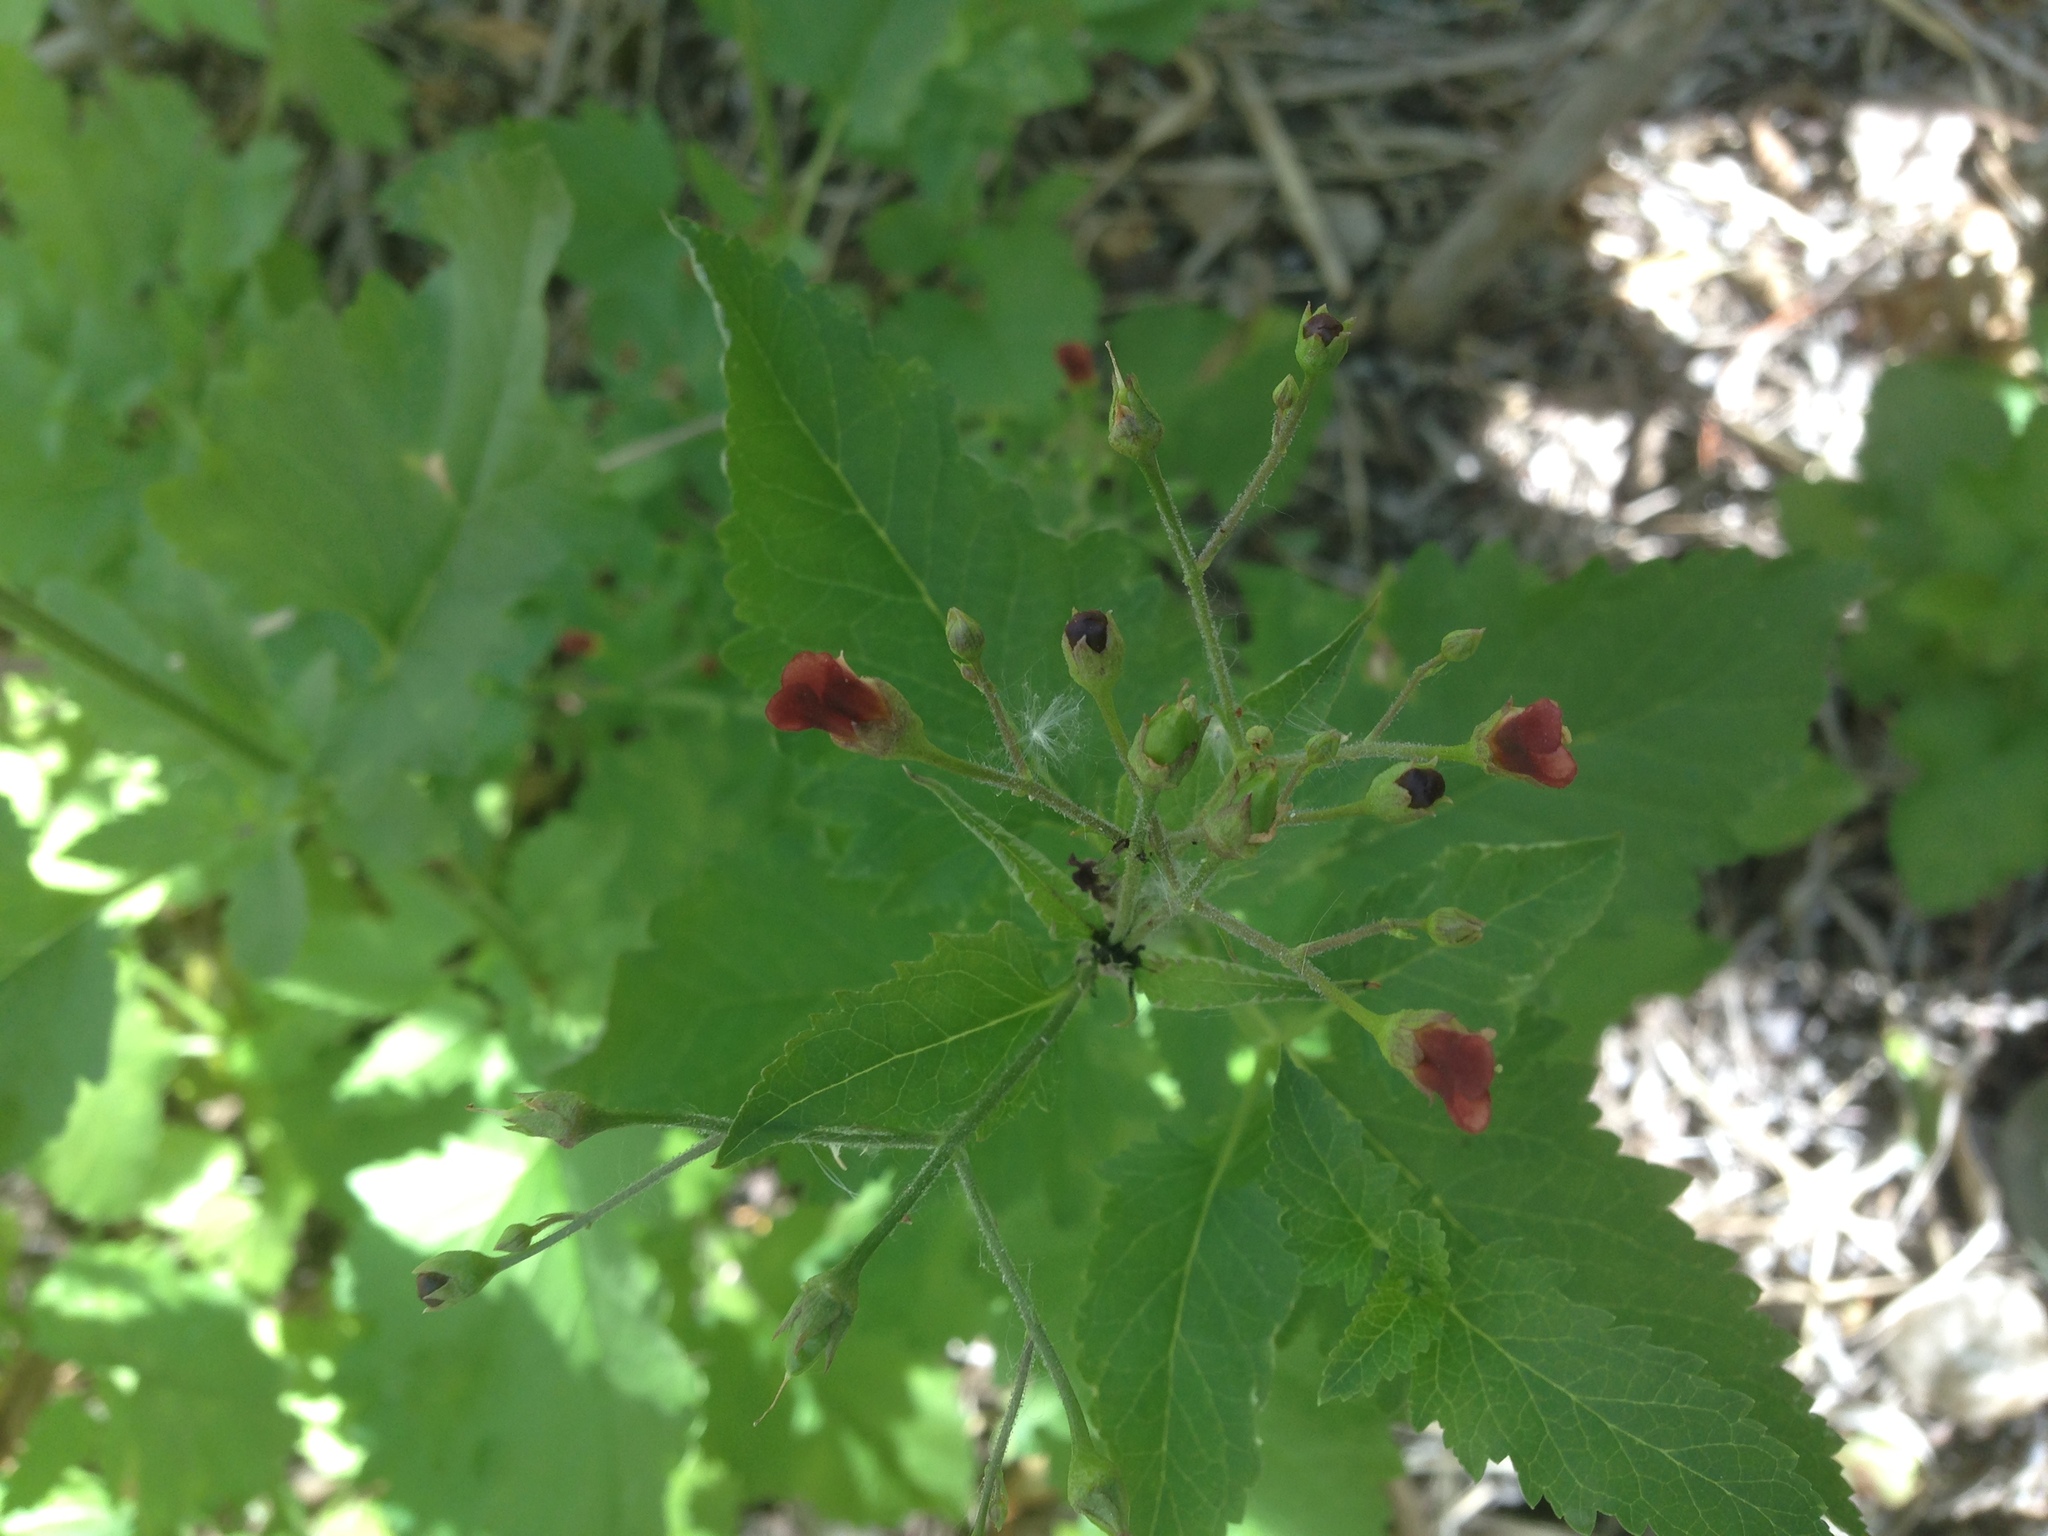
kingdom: Plantae
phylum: Tracheophyta
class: Magnoliopsida
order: Lamiales
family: Scrophulariaceae
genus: Scrophularia
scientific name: Scrophularia californica
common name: California figwort
